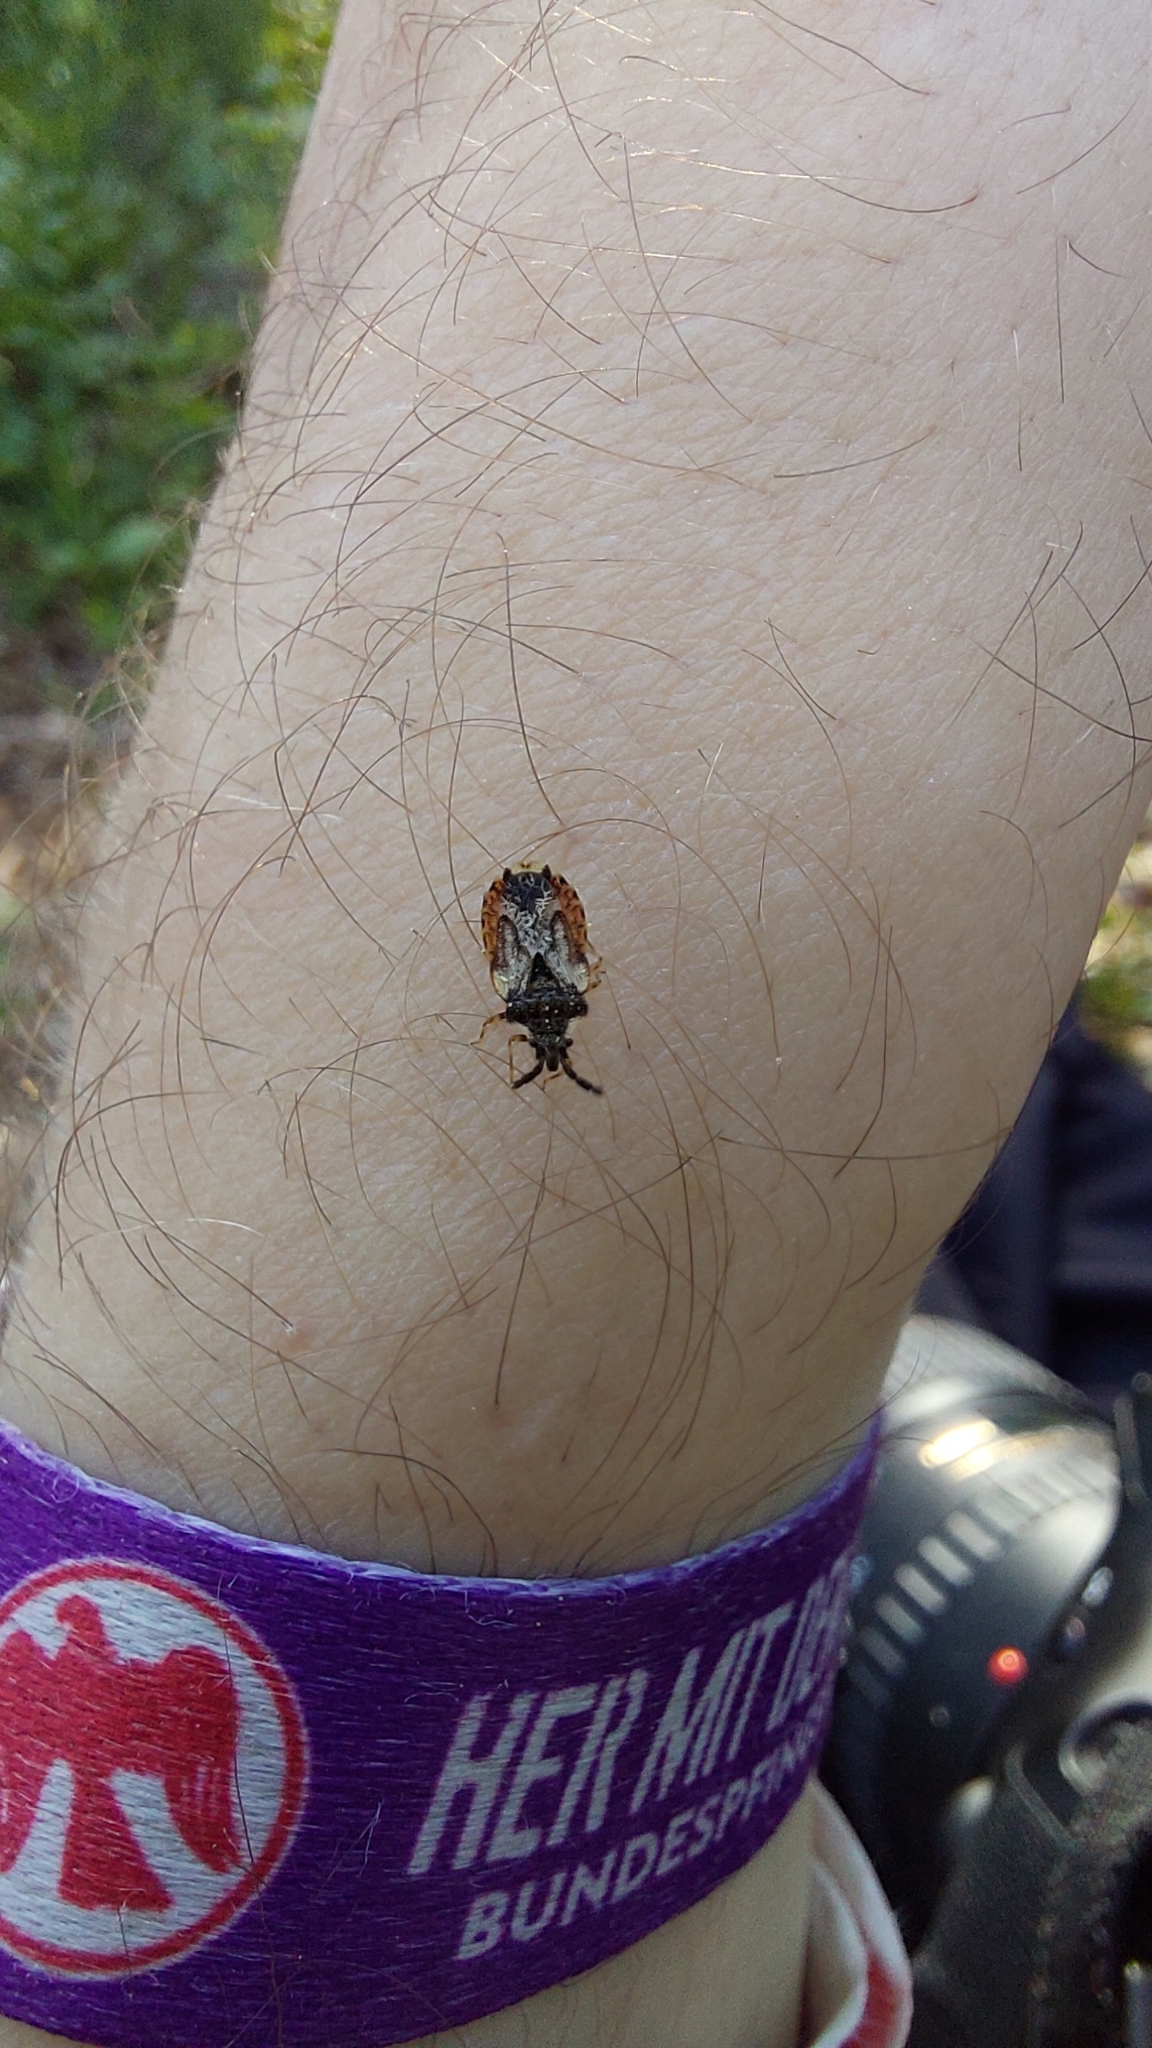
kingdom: Animalia
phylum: Arthropoda
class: Insecta
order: Hemiptera
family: Aradidae
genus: Aradus
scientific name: Aradus depressus
